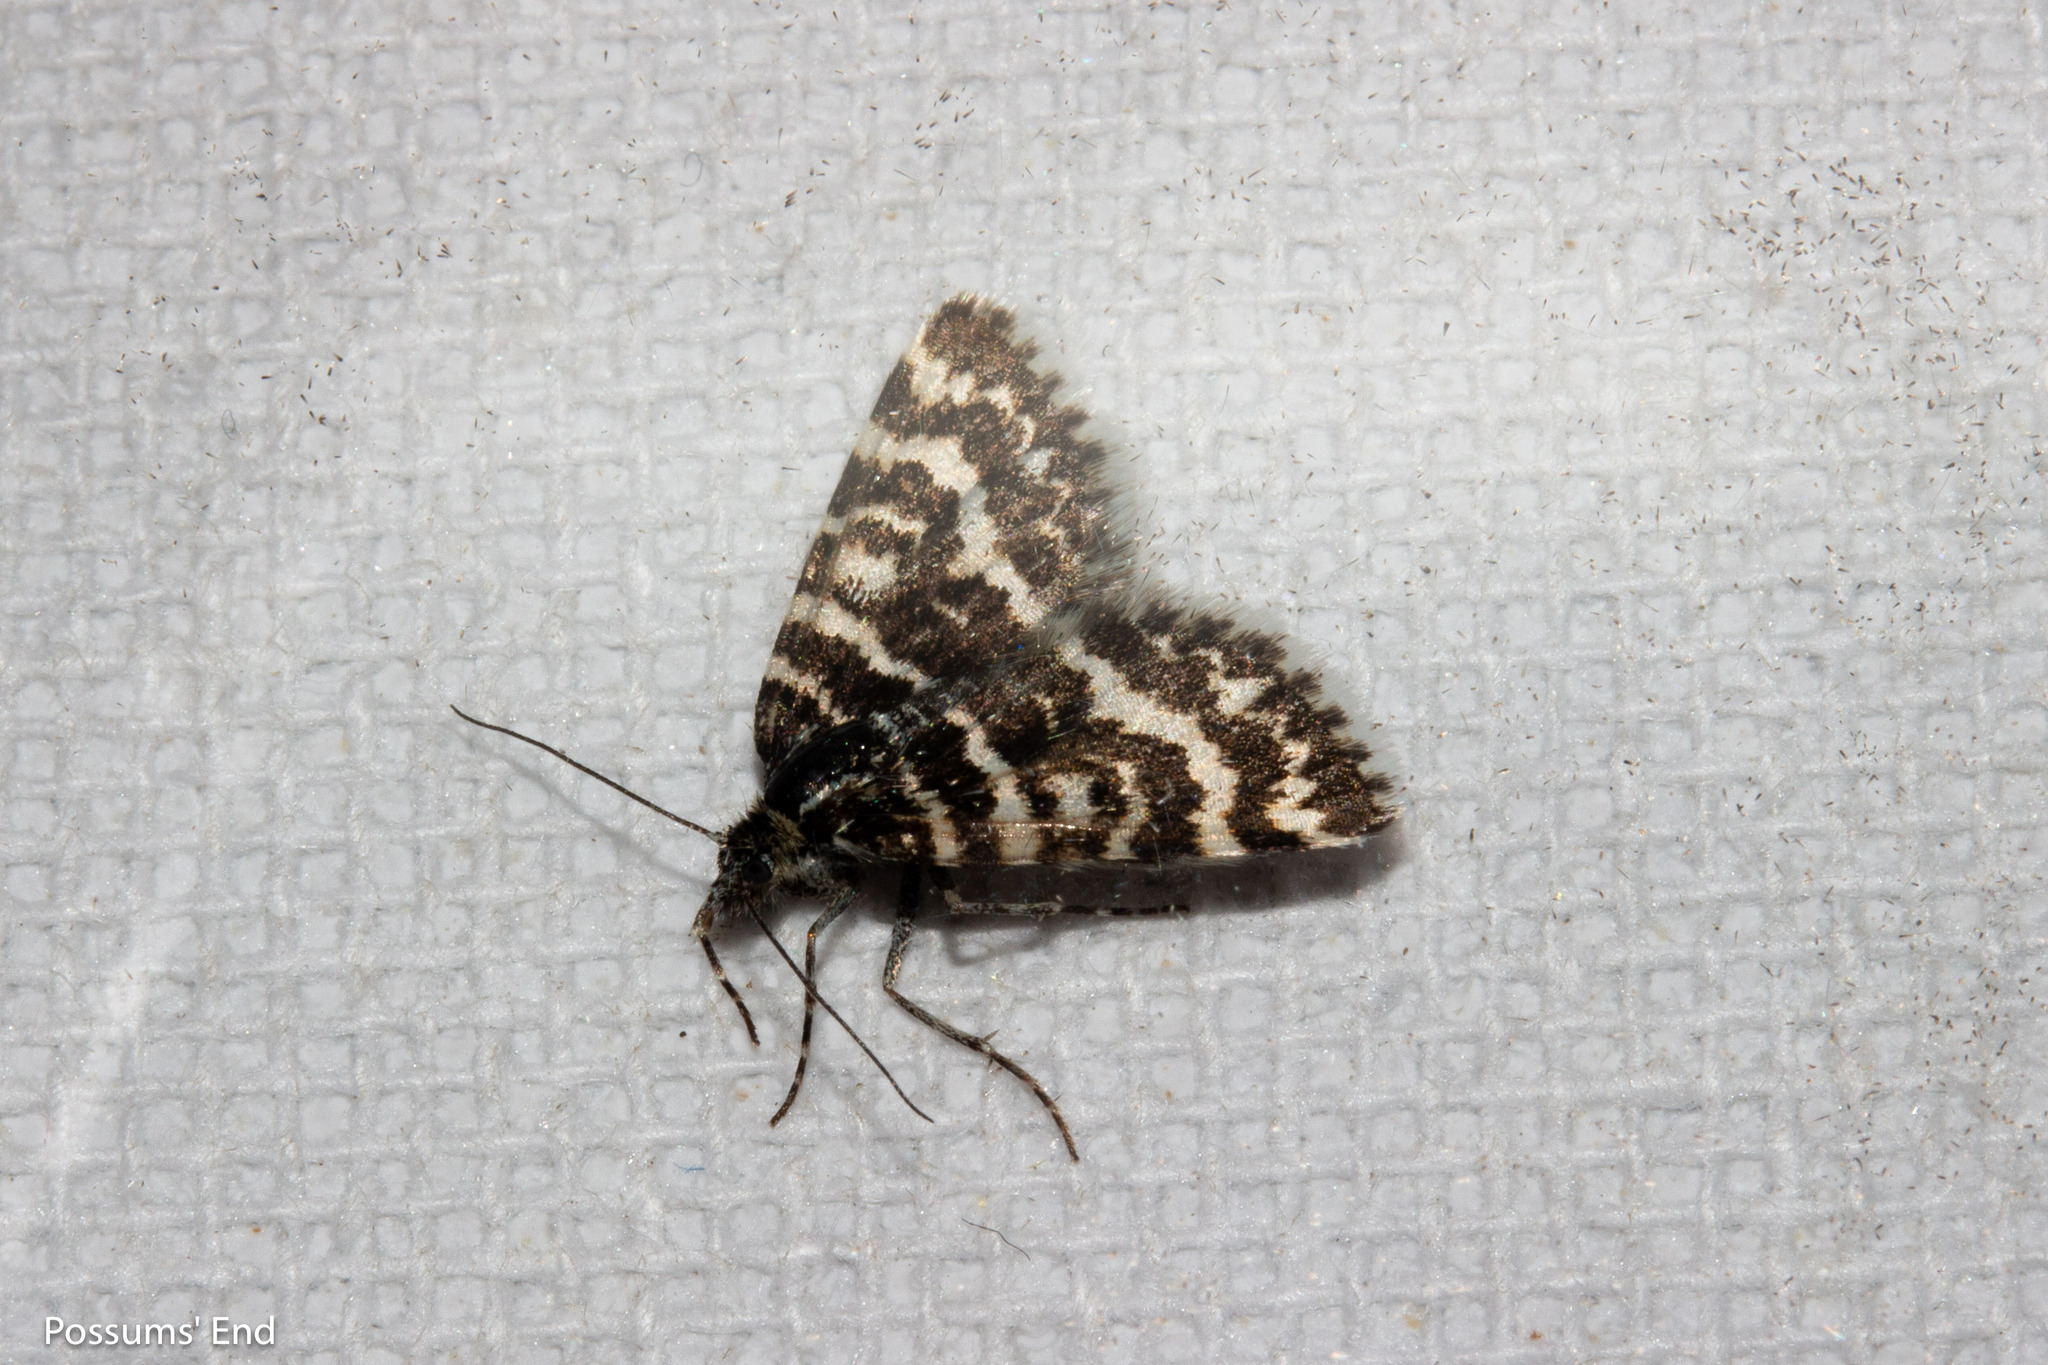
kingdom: Animalia
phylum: Arthropoda
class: Insecta
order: Lepidoptera
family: Geometridae
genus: Notoreas
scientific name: Notoreas hexaleuca
